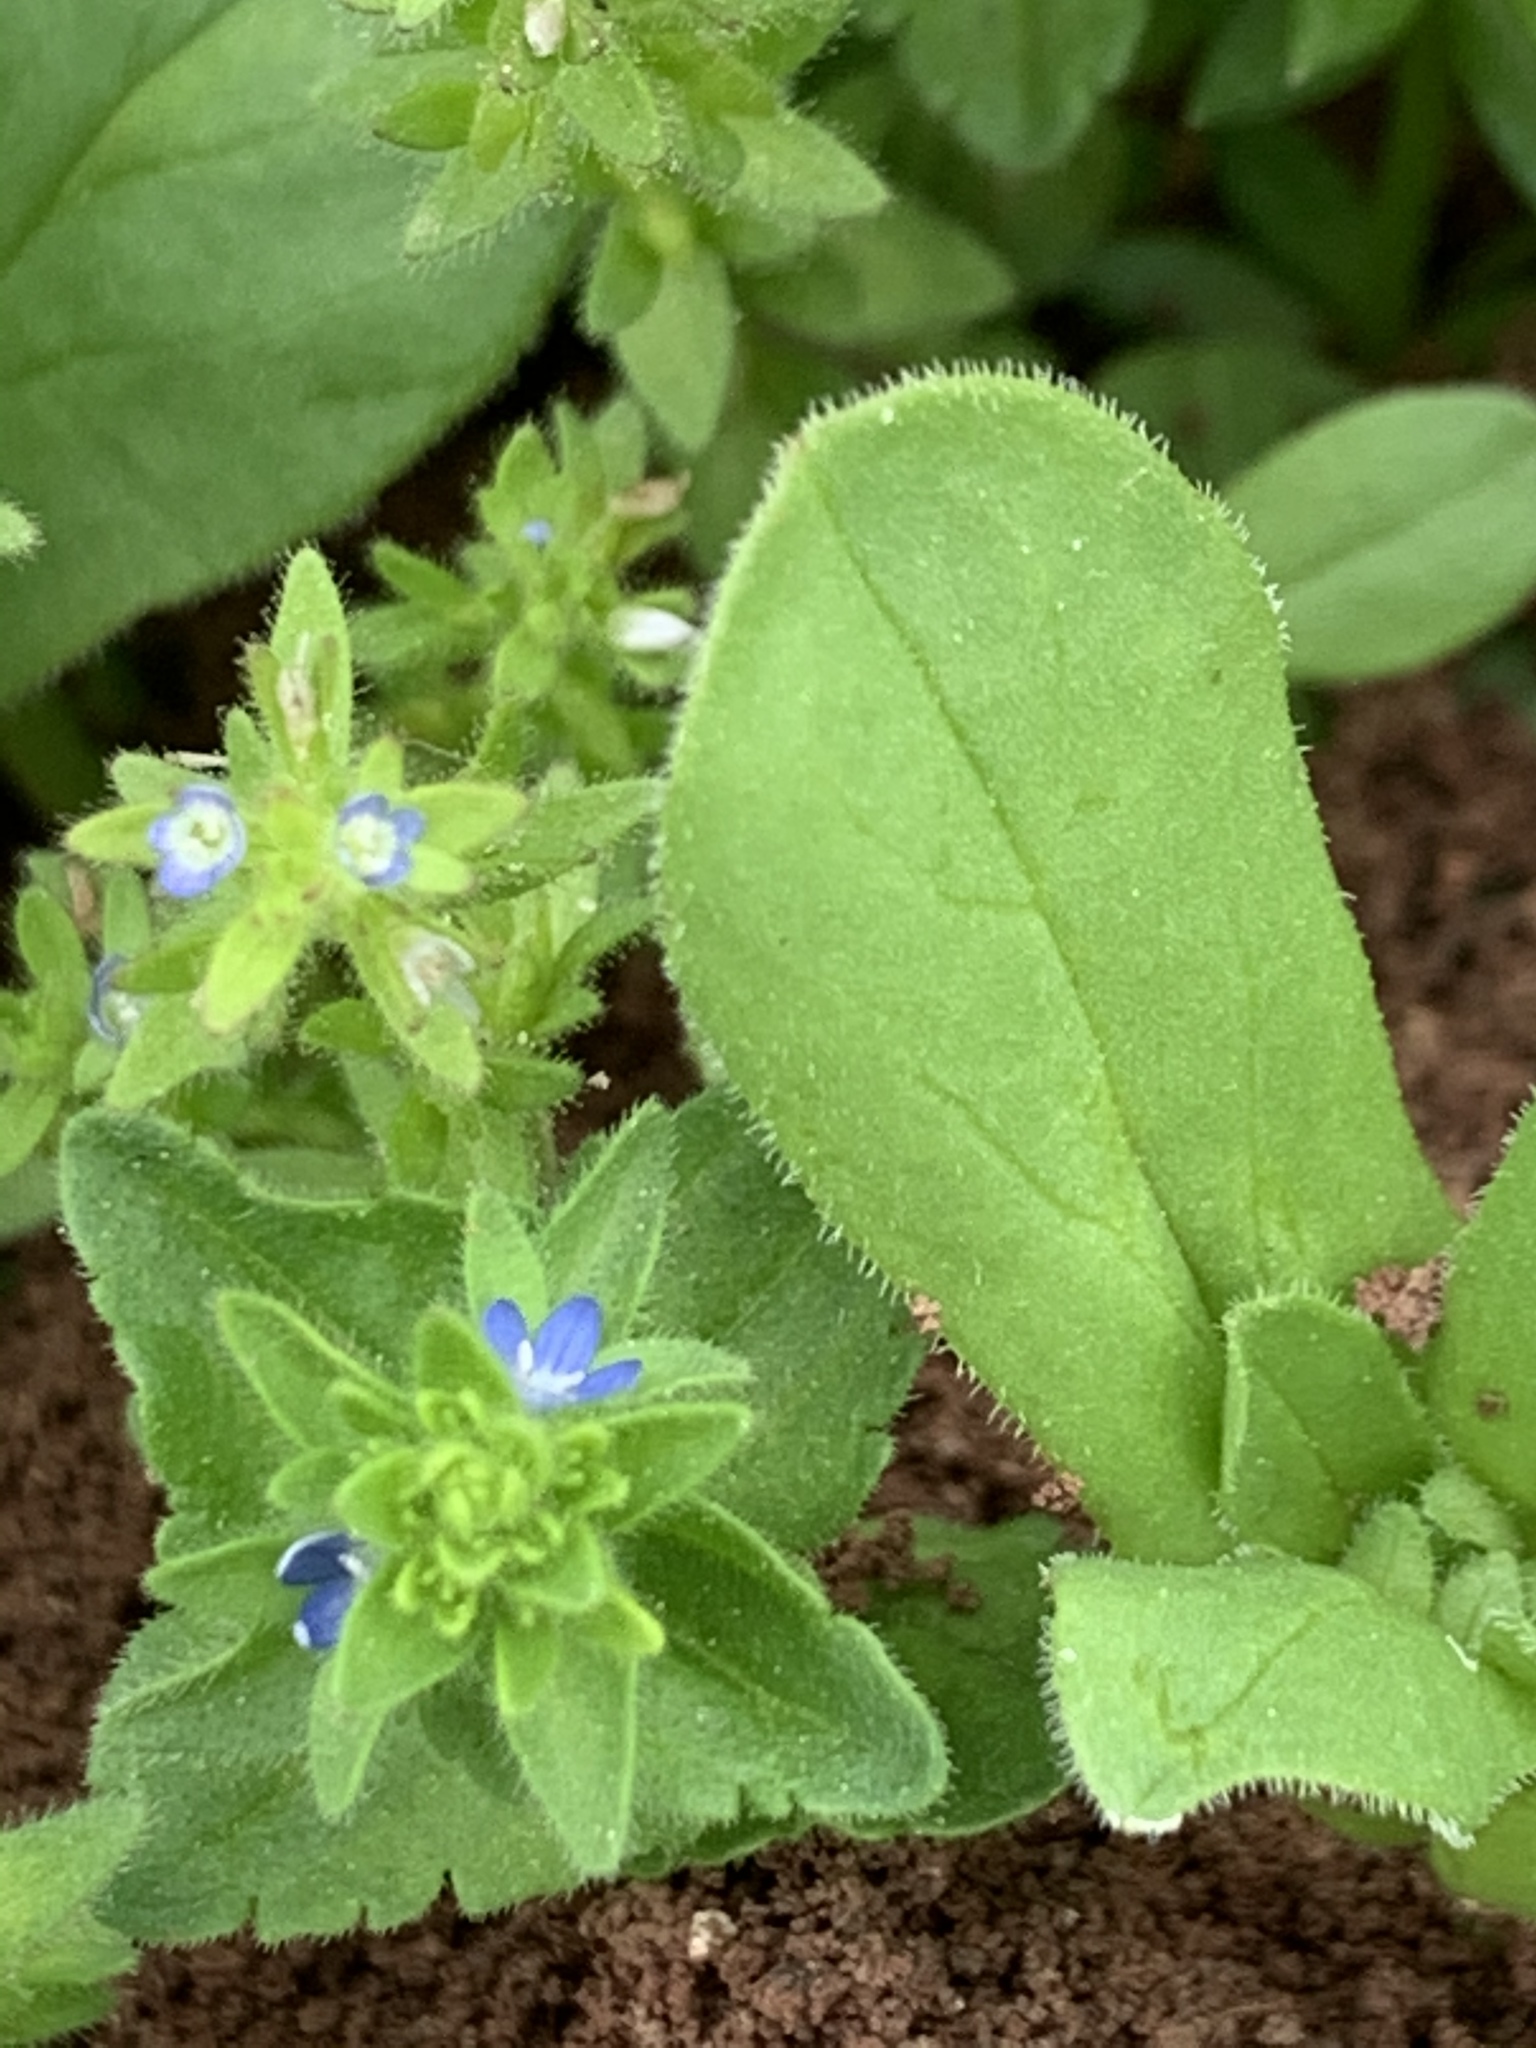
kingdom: Plantae
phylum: Tracheophyta
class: Magnoliopsida
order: Lamiales
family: Plantaginaceae
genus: Veronica
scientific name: Veronica arvensis
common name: Corn speedwell
